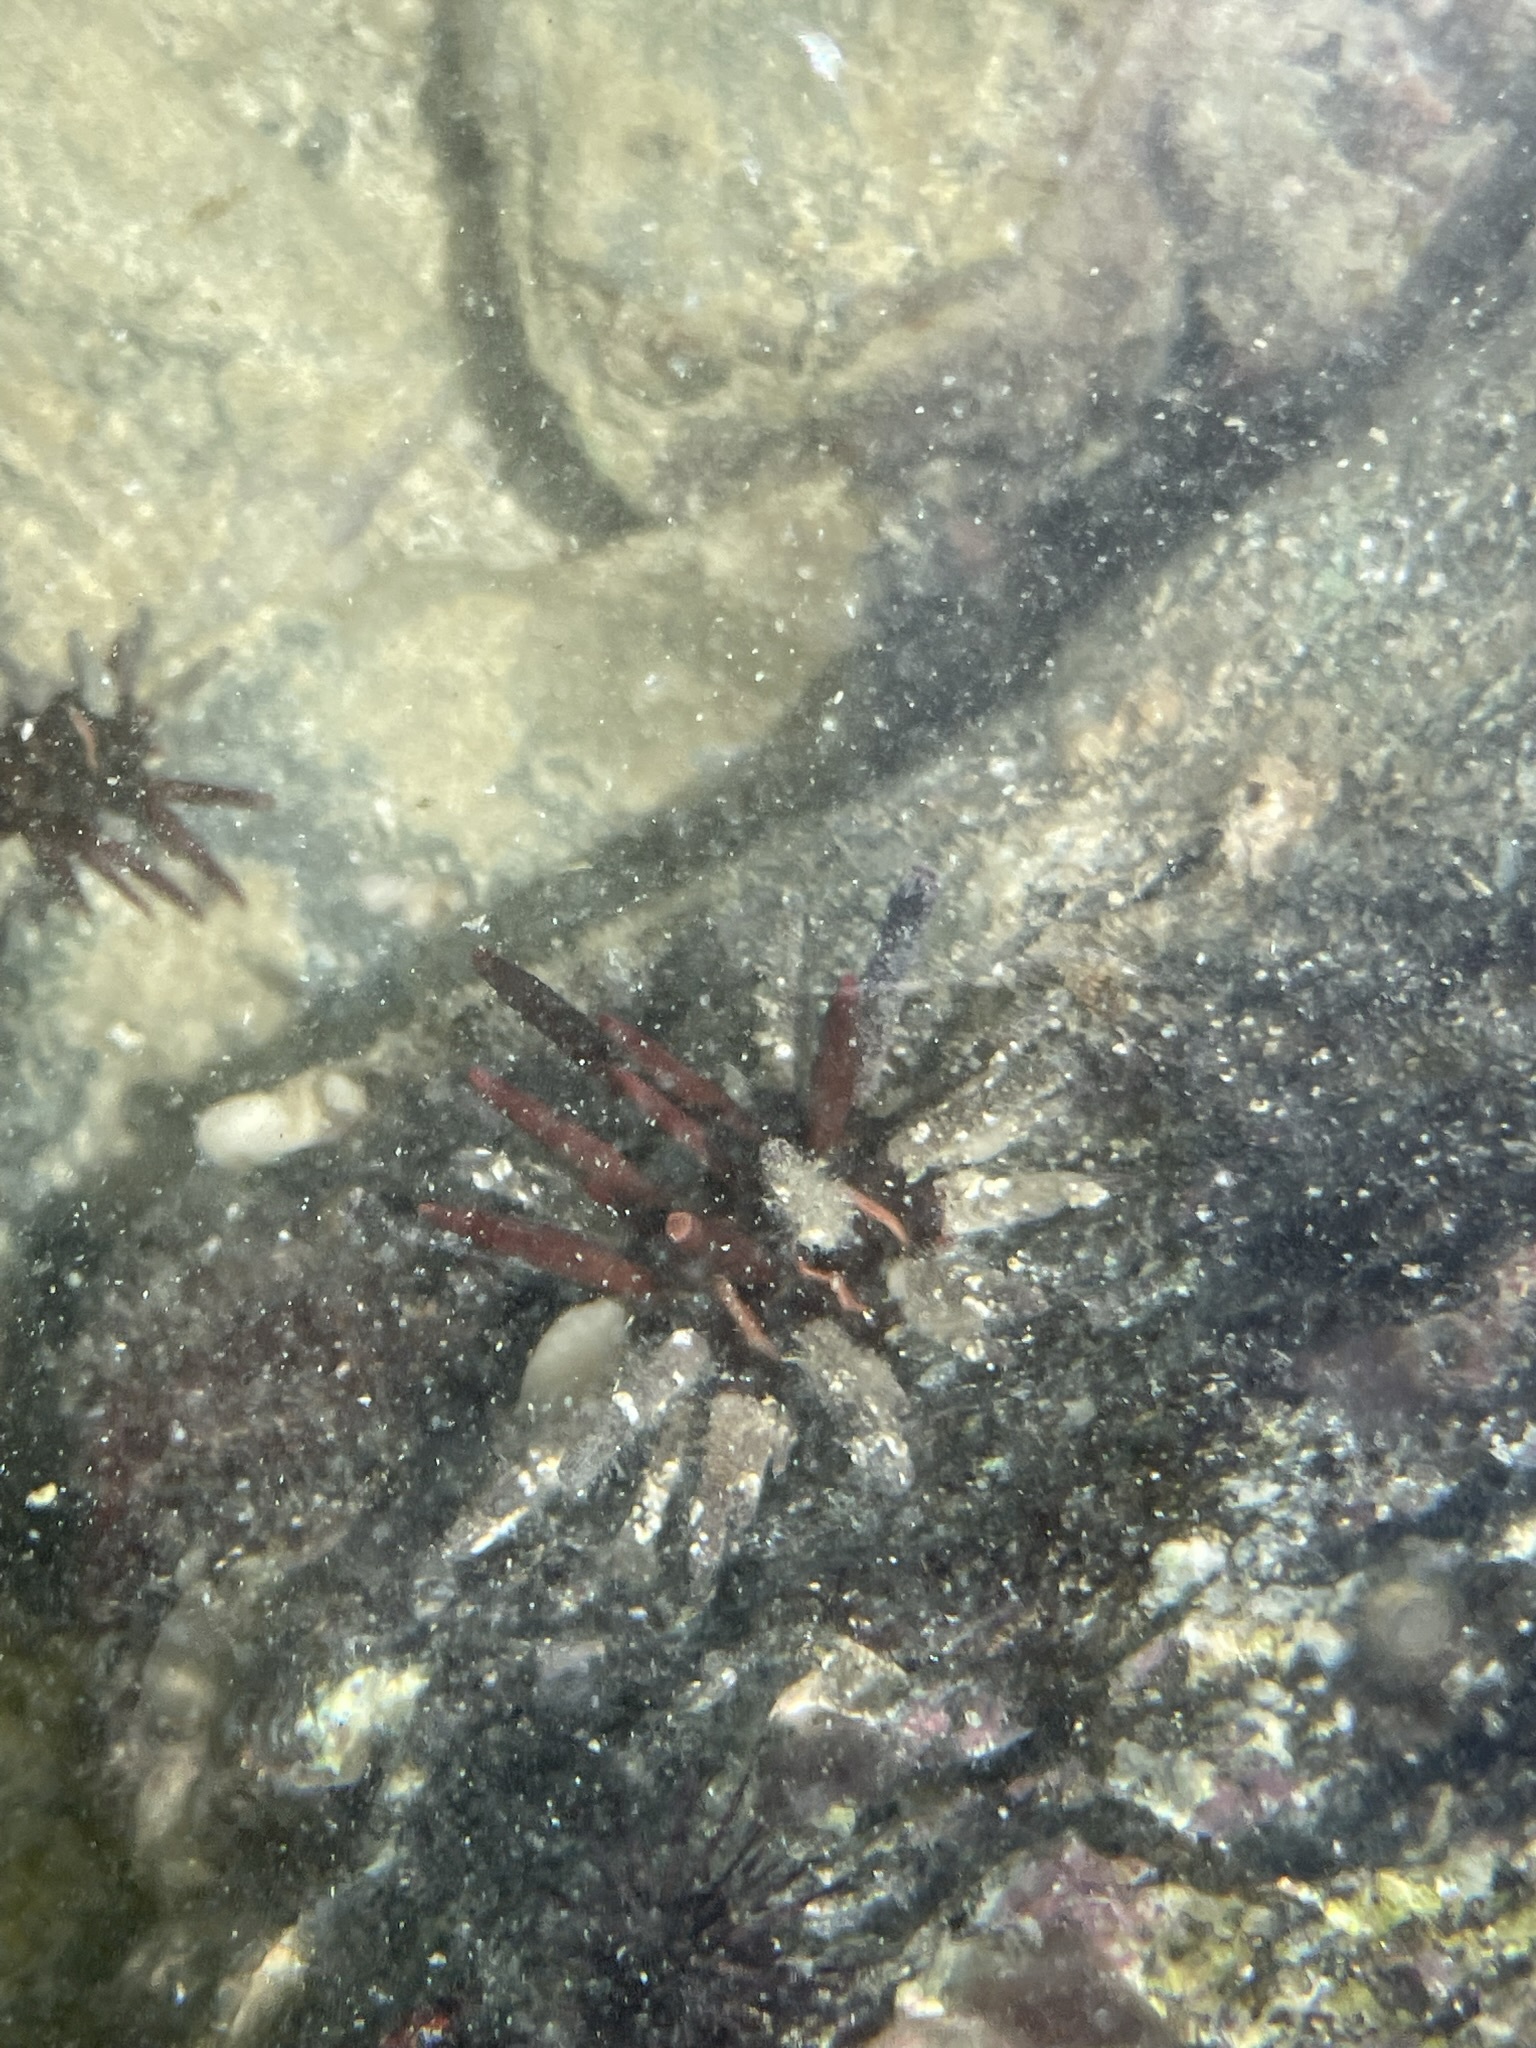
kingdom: Animalia
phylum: Echinodermata
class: Echinoidea
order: Cidaroida
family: Cidaridae
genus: Eucidaris
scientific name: Eucidaris thouarsii
